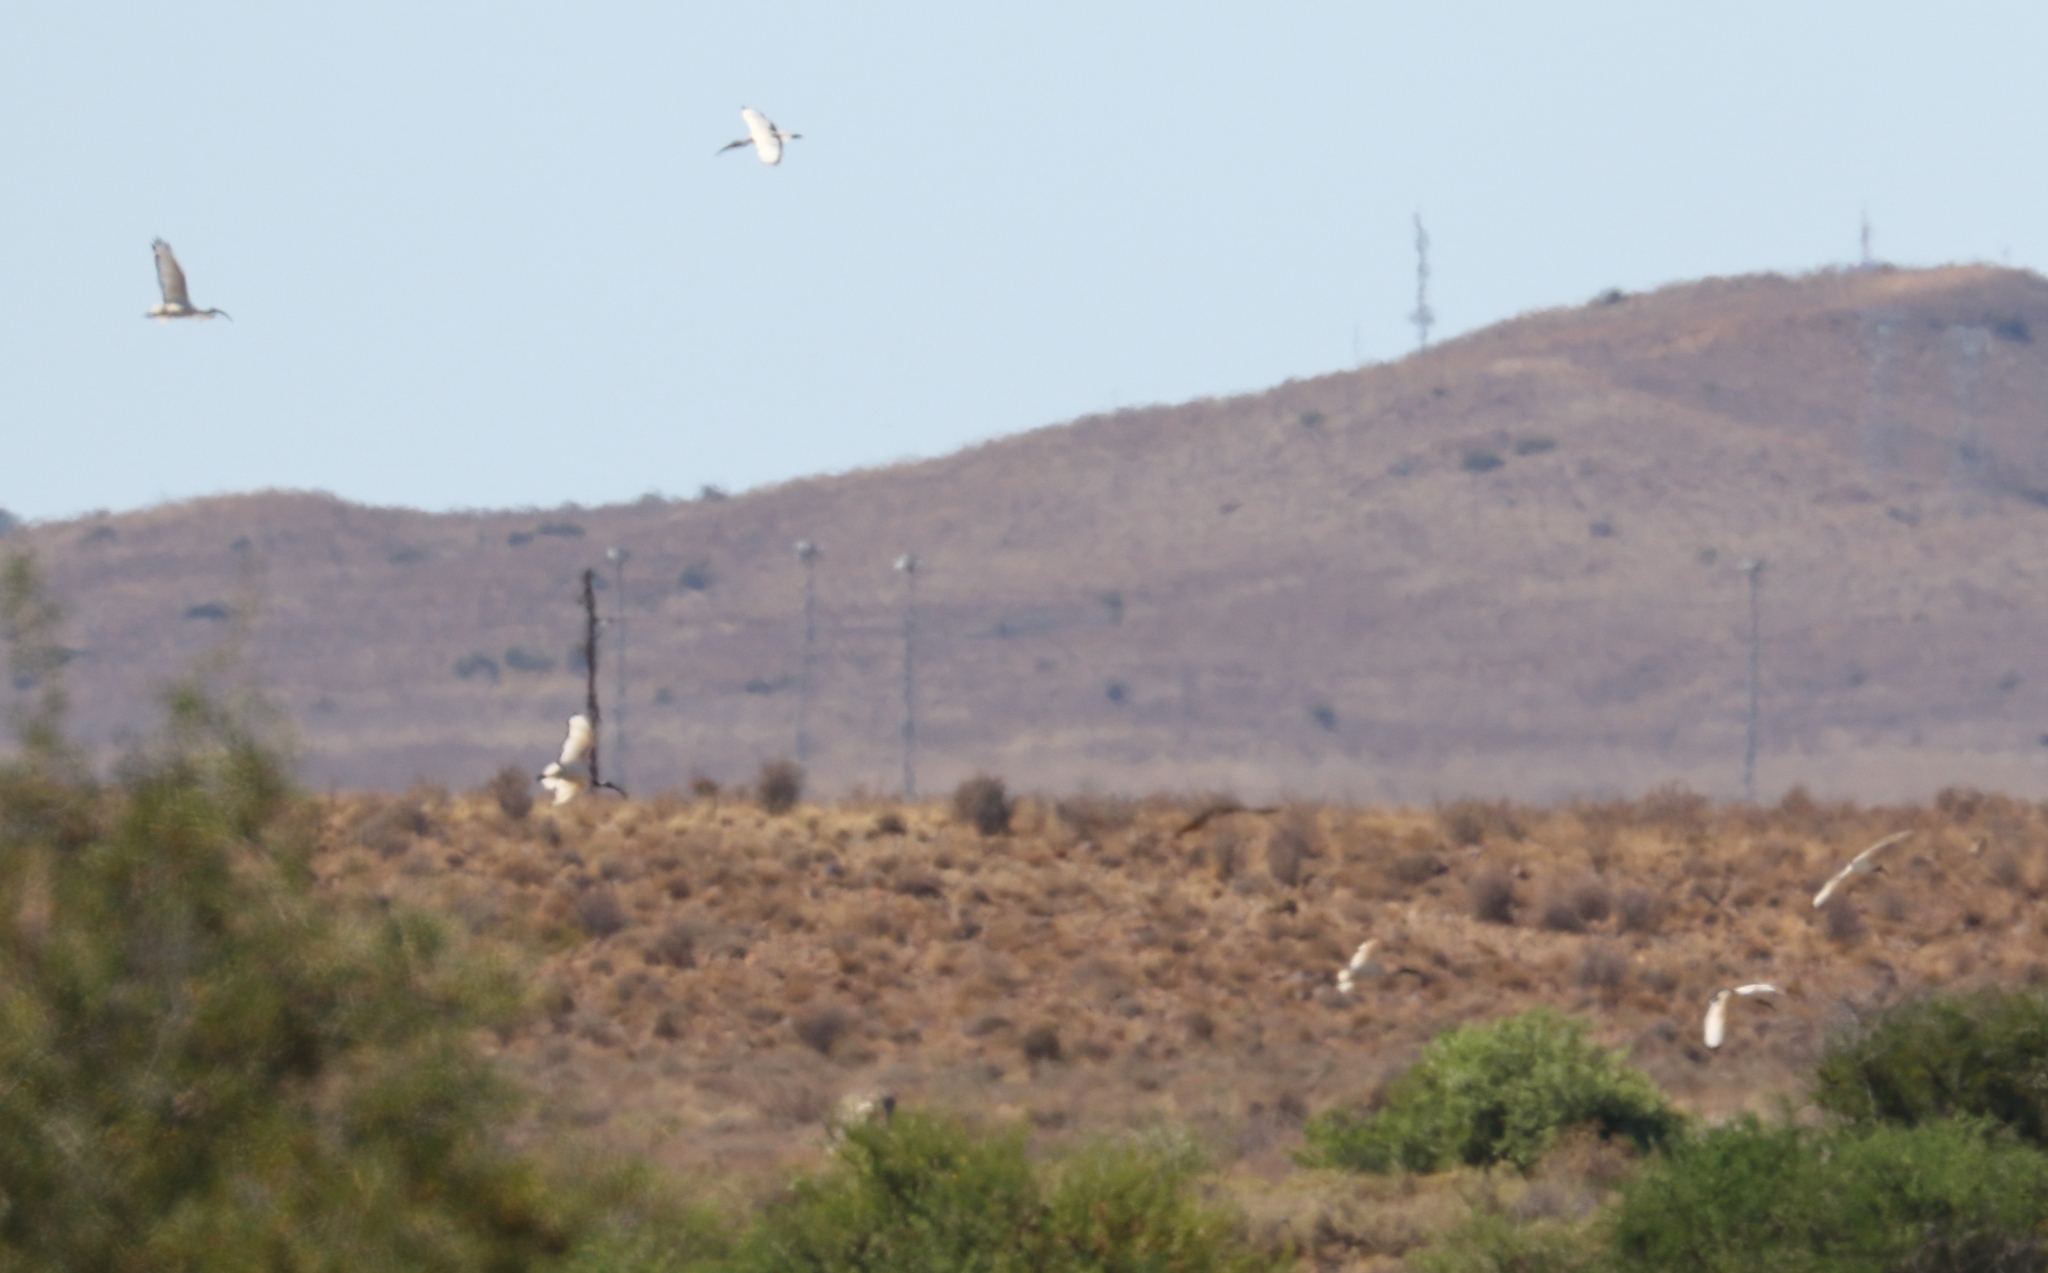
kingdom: Animalia
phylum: Chordata
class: Aves
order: Pelecaniformes
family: Threskiornithidae
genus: Threskiornis
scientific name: Threskiornis aethiopicus
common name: Sacred ibis
